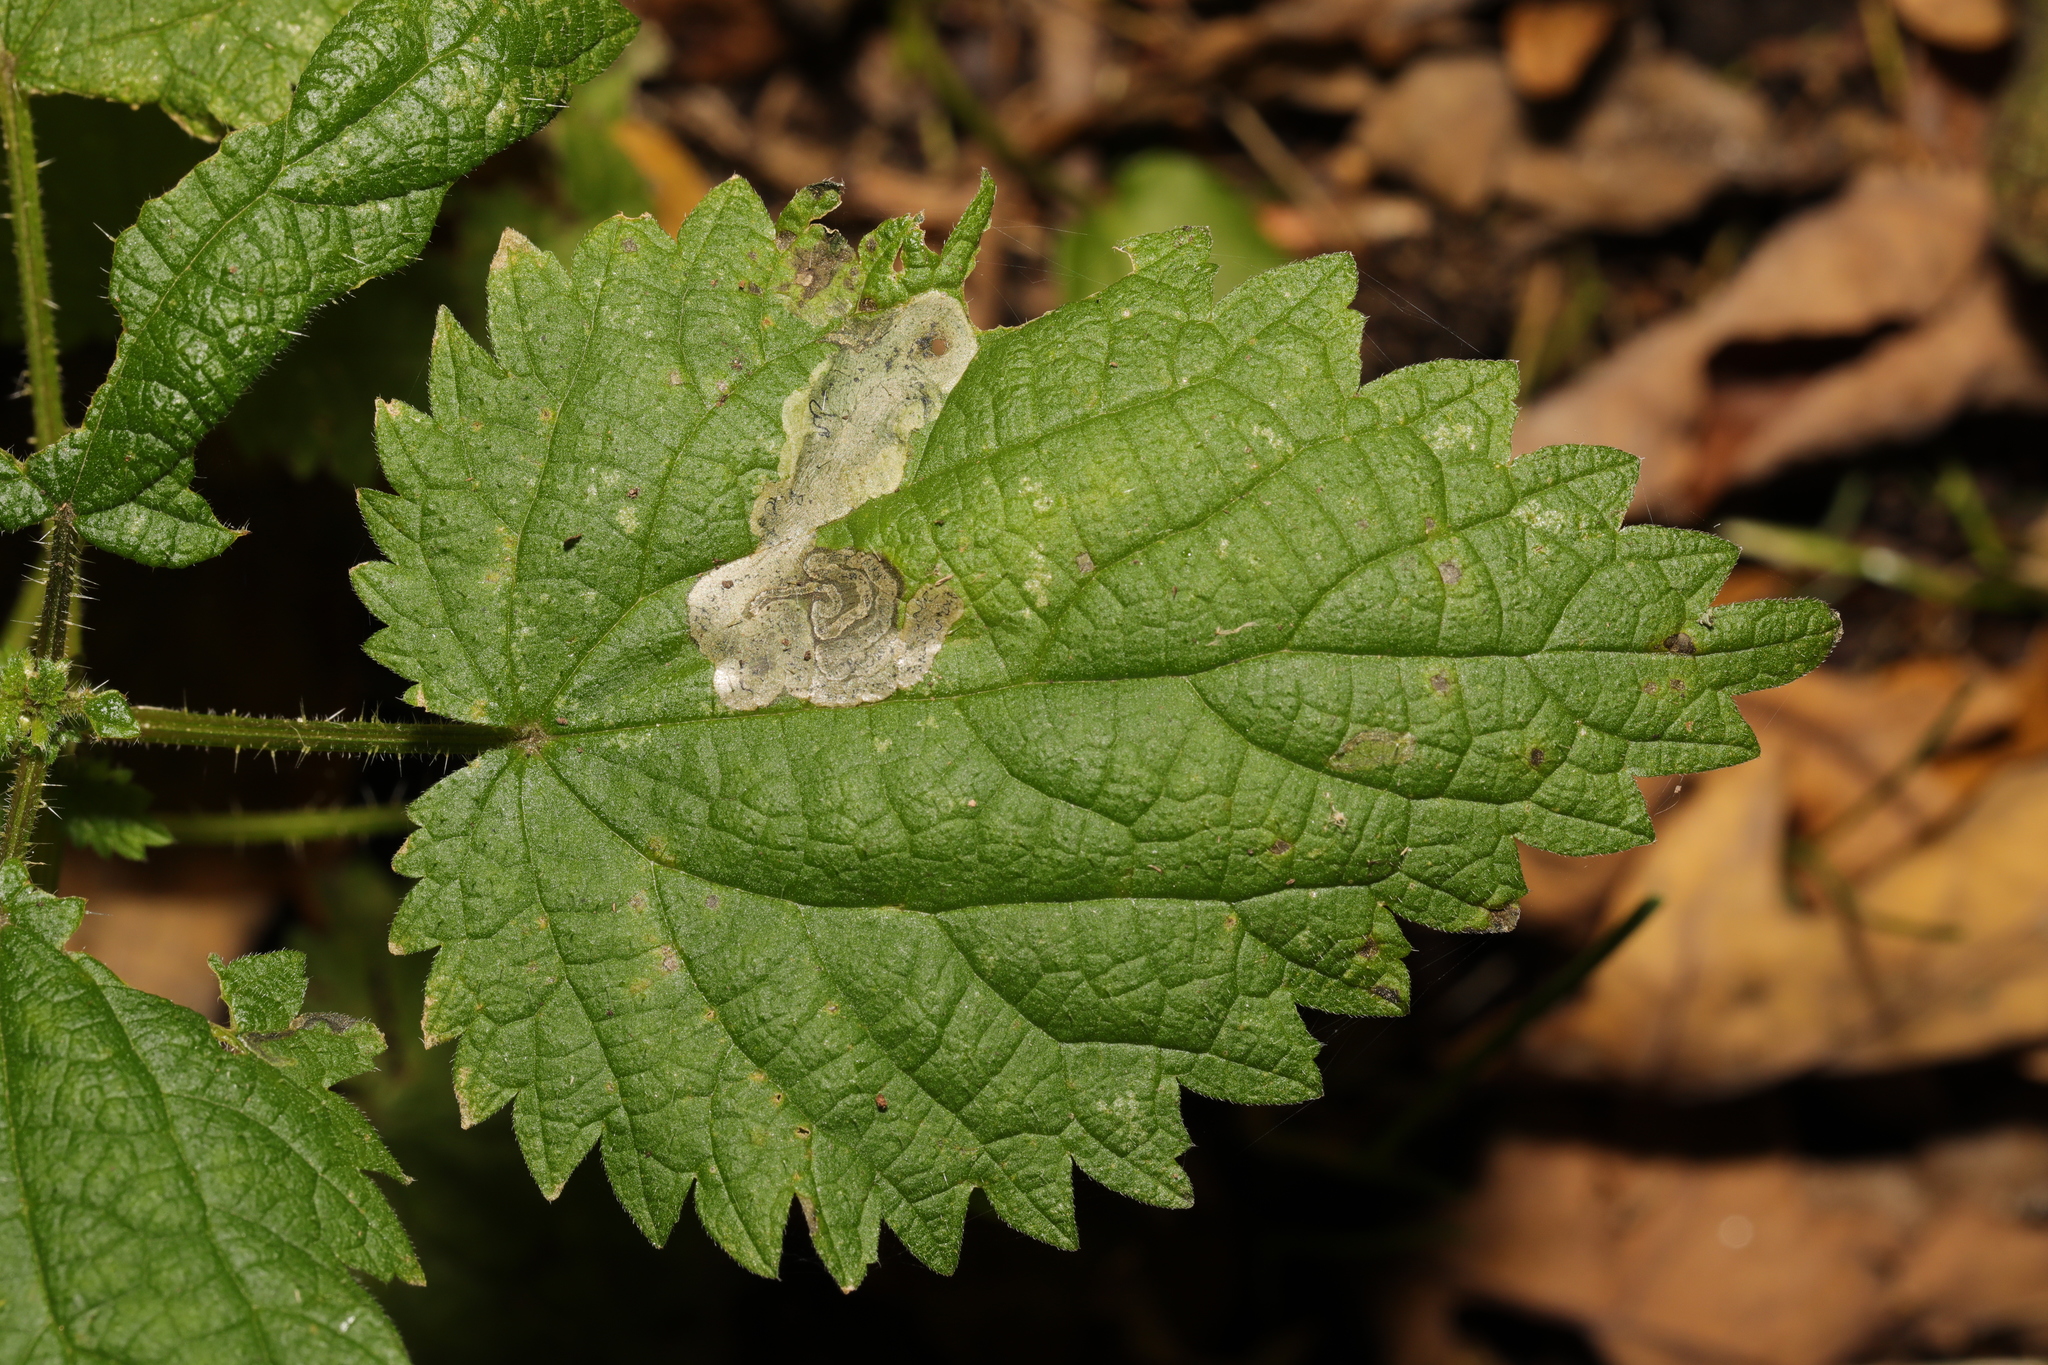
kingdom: Animalia
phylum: Arthropoda
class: Insecta
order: Diptera
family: Agromyzidae
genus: Agromyza
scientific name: Agromyza anthracina
